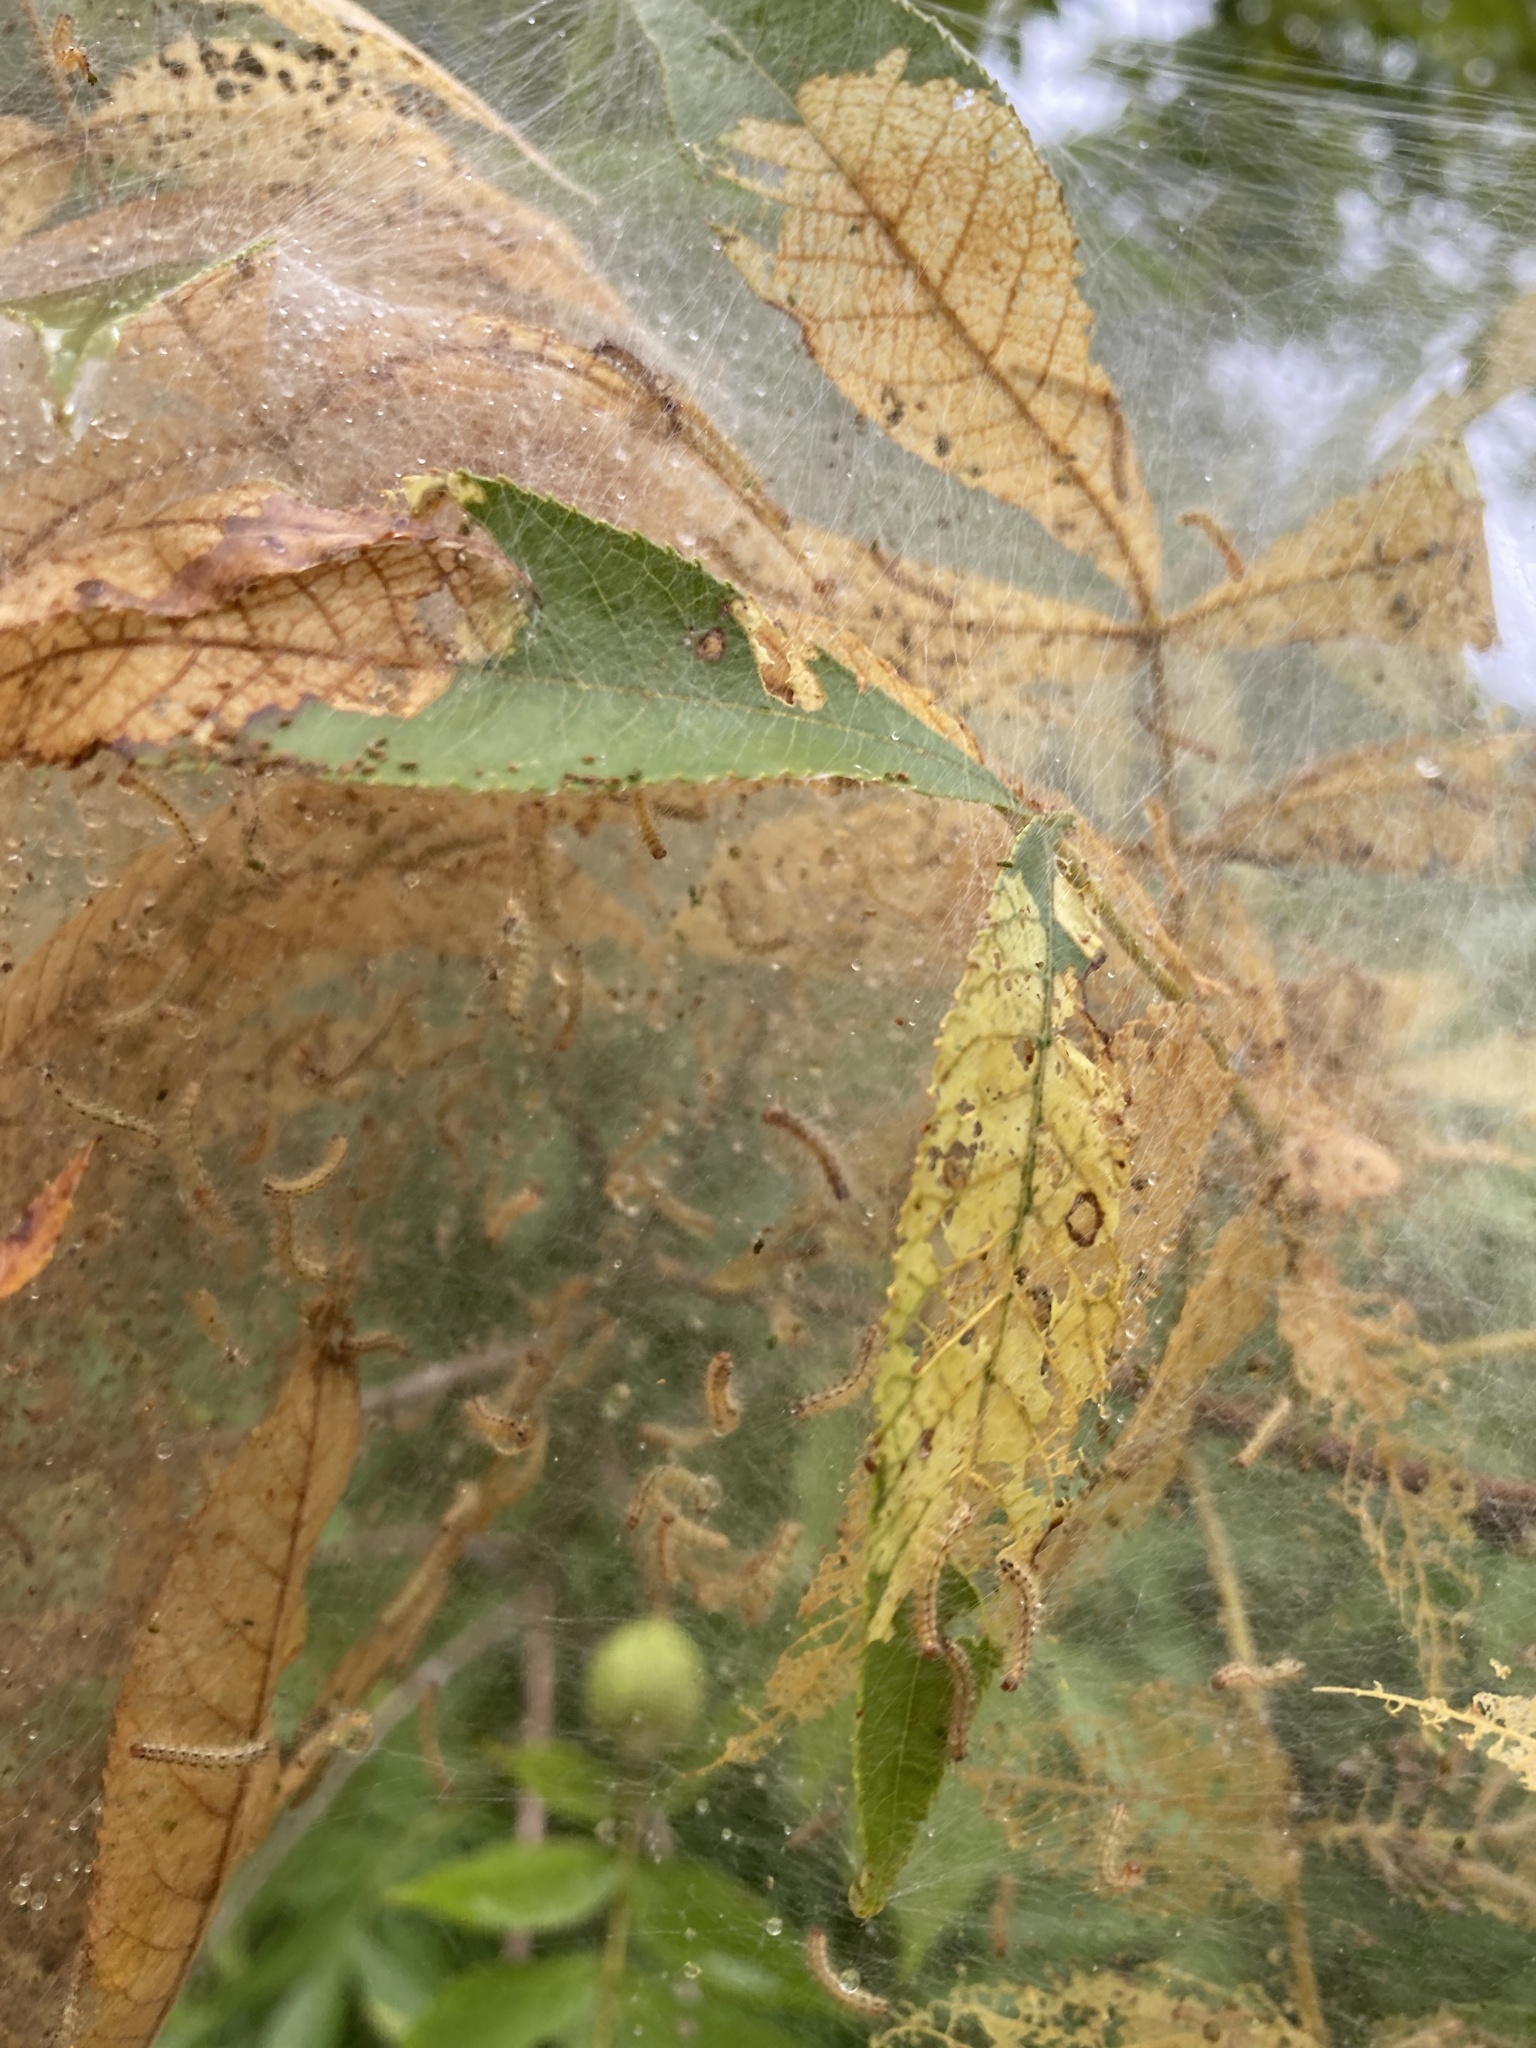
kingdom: Animalia
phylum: Arthropoda
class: Insecta
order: Lepidoptera
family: Erebidae
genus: Hyphantria
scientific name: Hyphantria cunea
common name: American white moth
